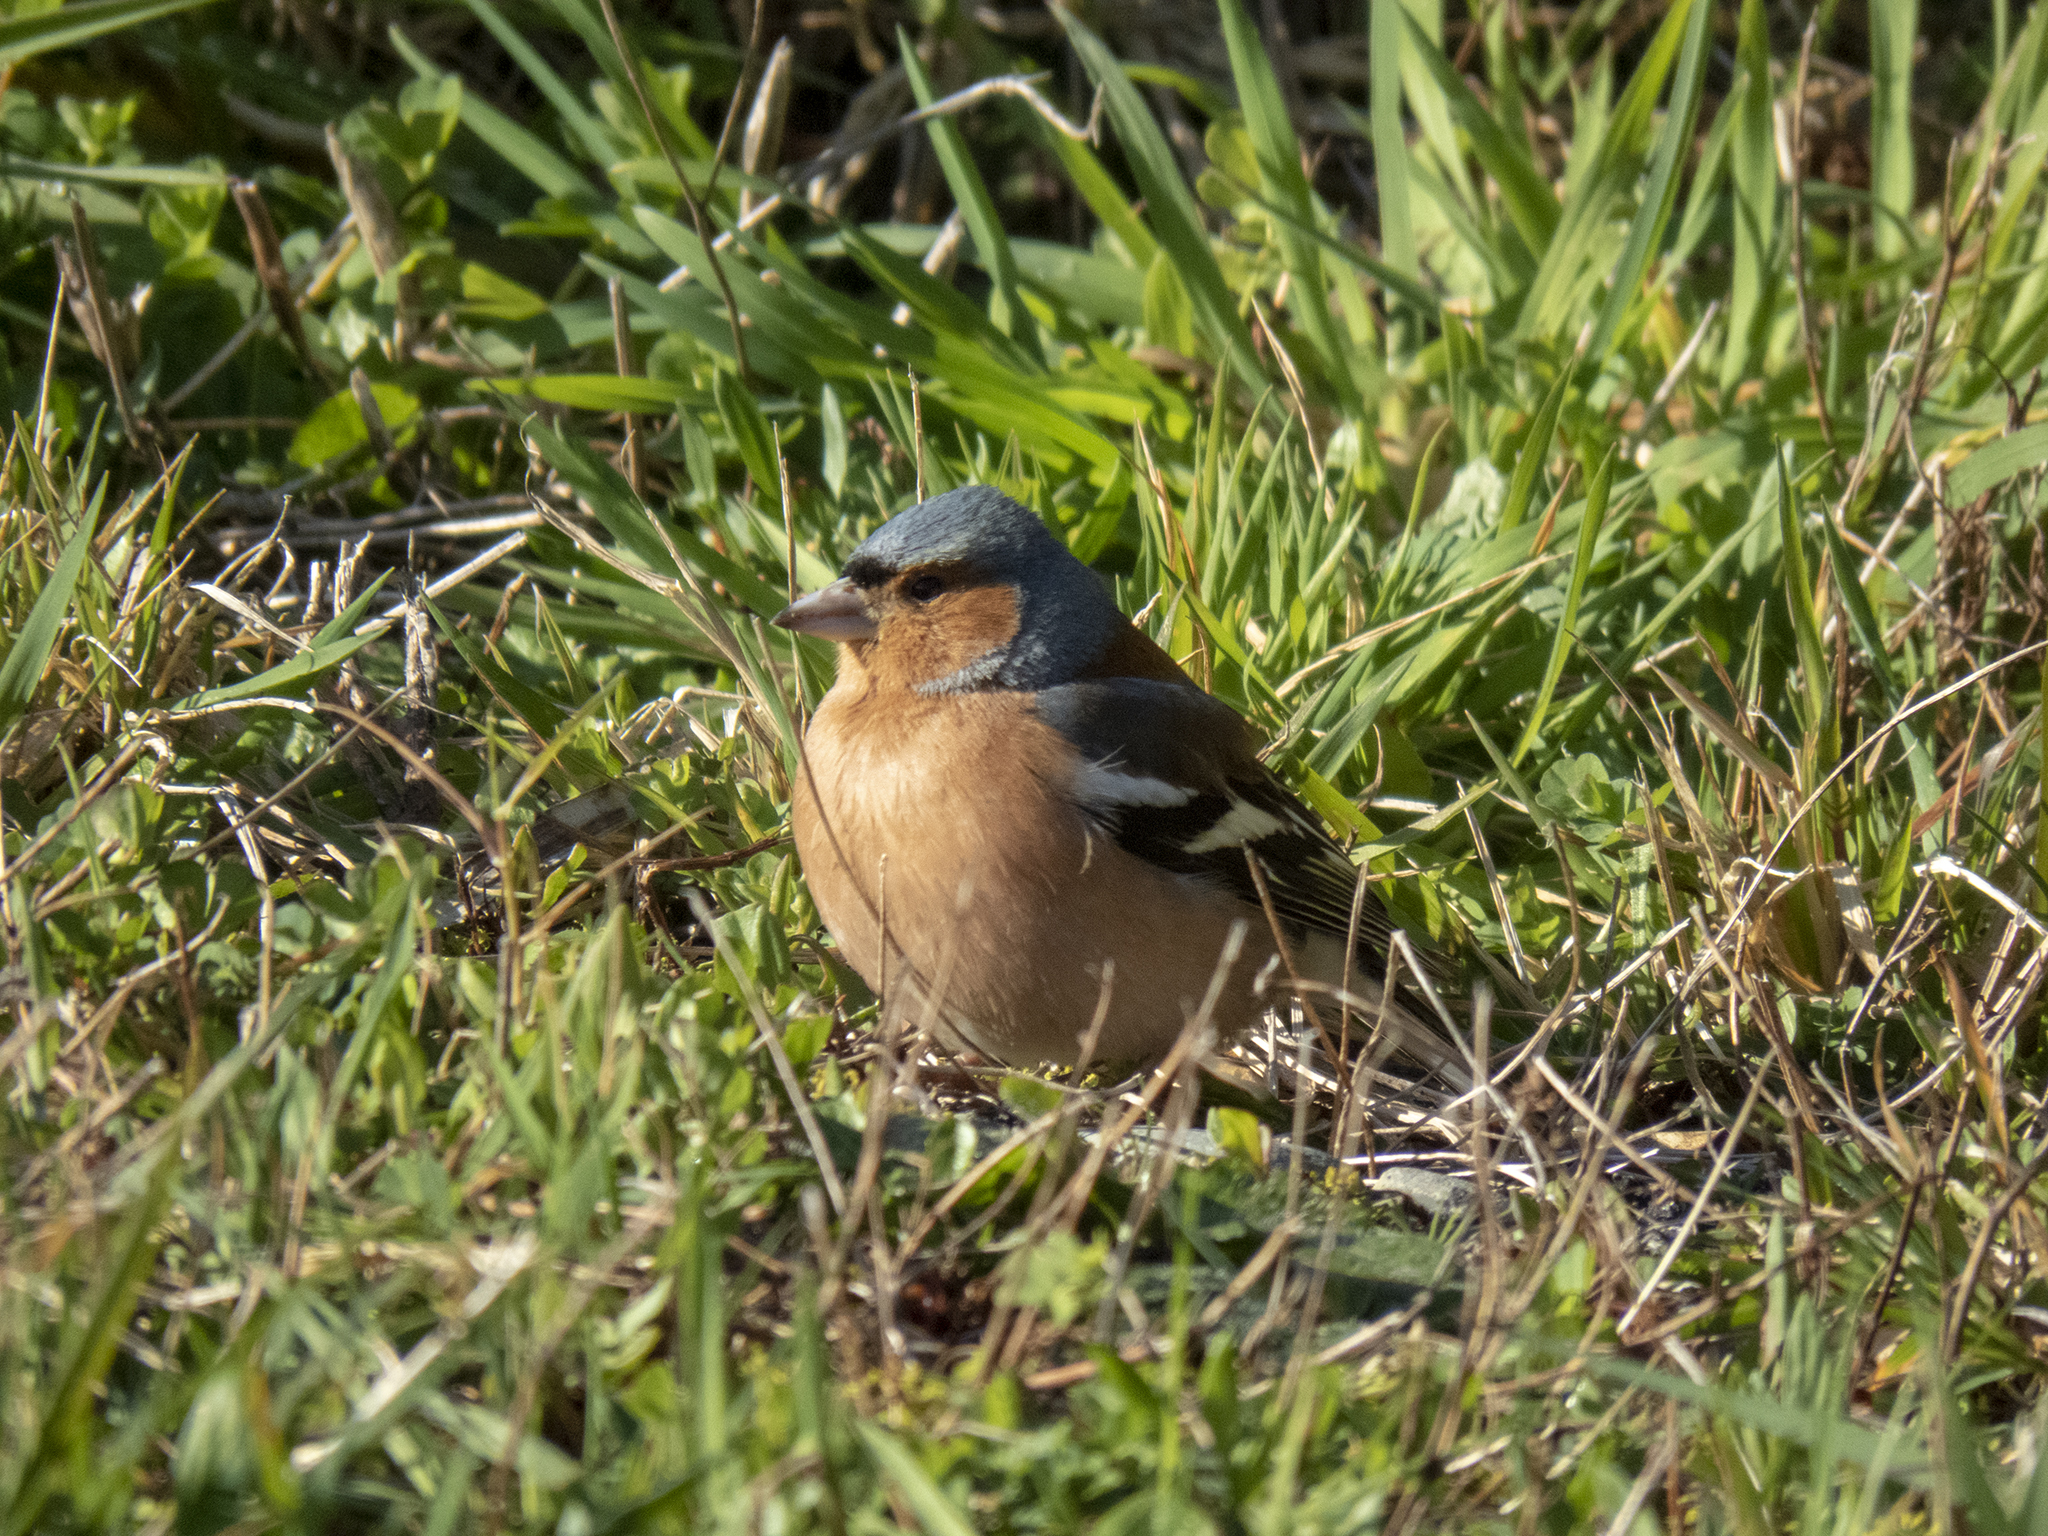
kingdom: Animalia
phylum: Chordata
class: Aves
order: Passeriformes
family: Fringillidae
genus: Fringilla
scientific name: Fringilla coelebs
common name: Common chaffinch
